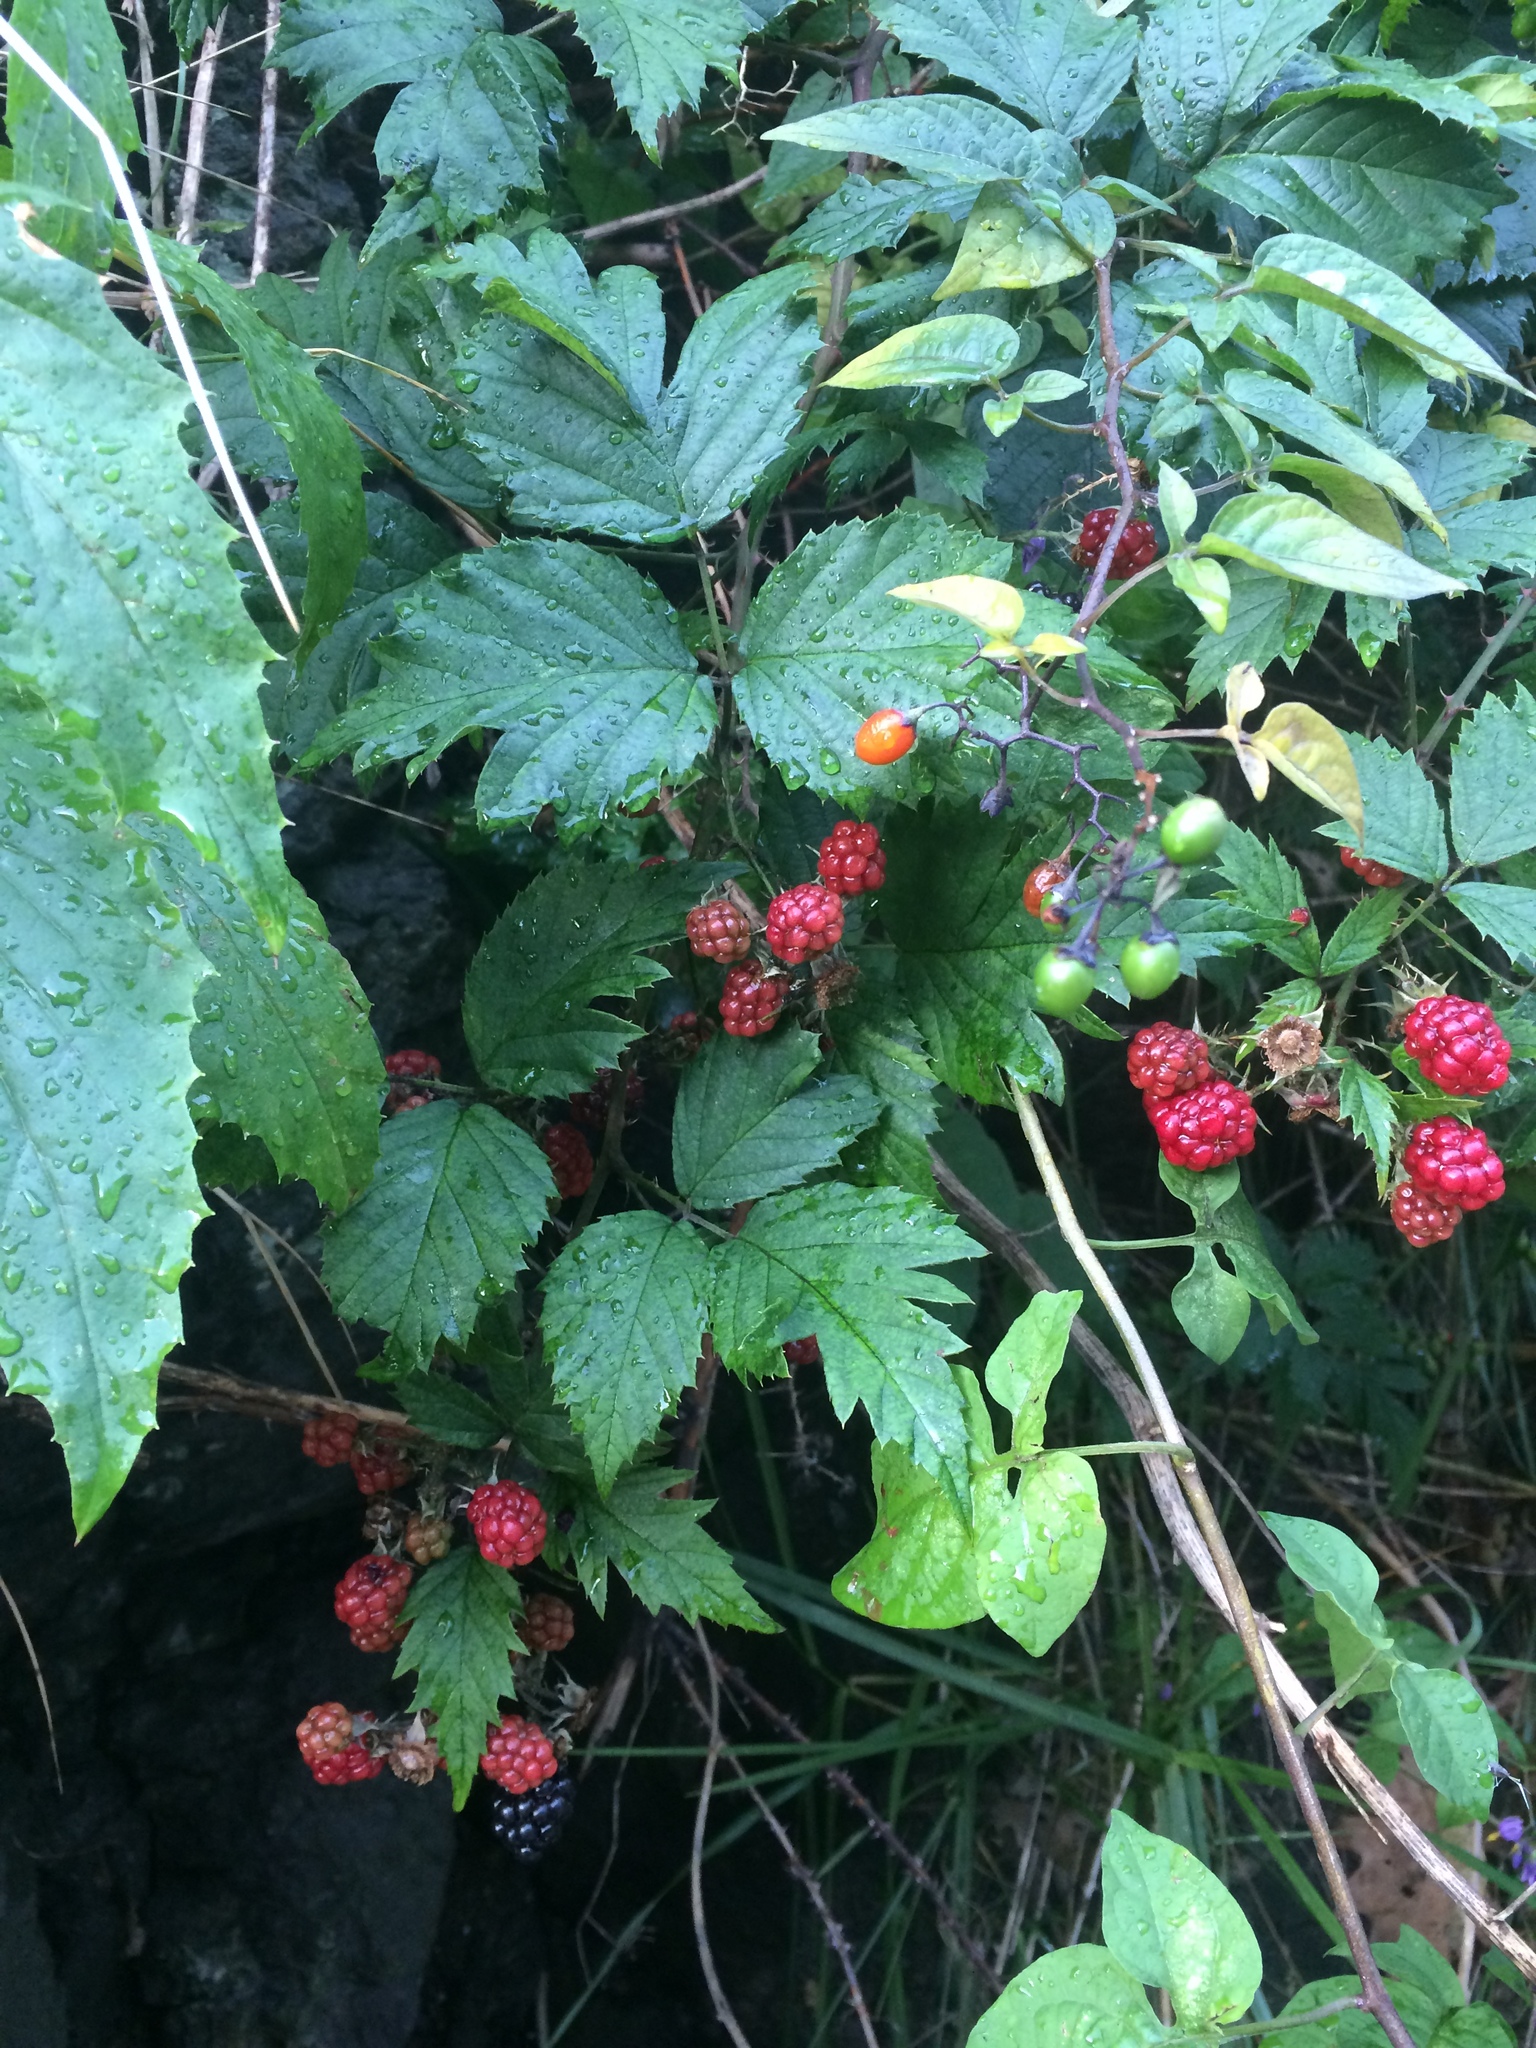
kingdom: Plantae
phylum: Tracheophyta
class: Magnoliopsida
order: Rosales
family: Rosaceae
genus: Rubus
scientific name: Rubus laciniatus
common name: Evergreen blackberry
